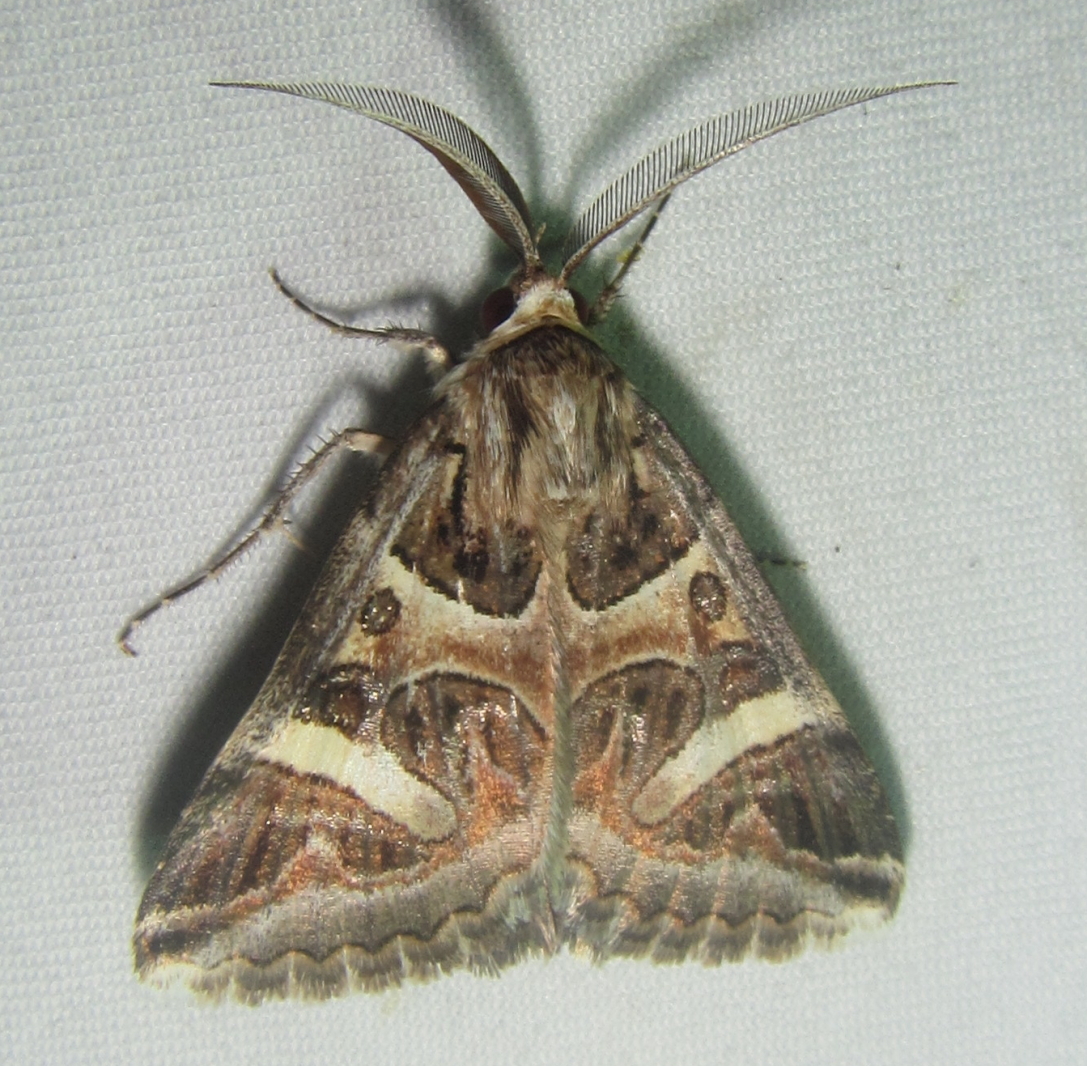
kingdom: Animalia
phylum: Arthropoda
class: Insecta
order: Lepidoptera
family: Erebidae
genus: Cerocala
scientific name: Cerocala vermiculosa
